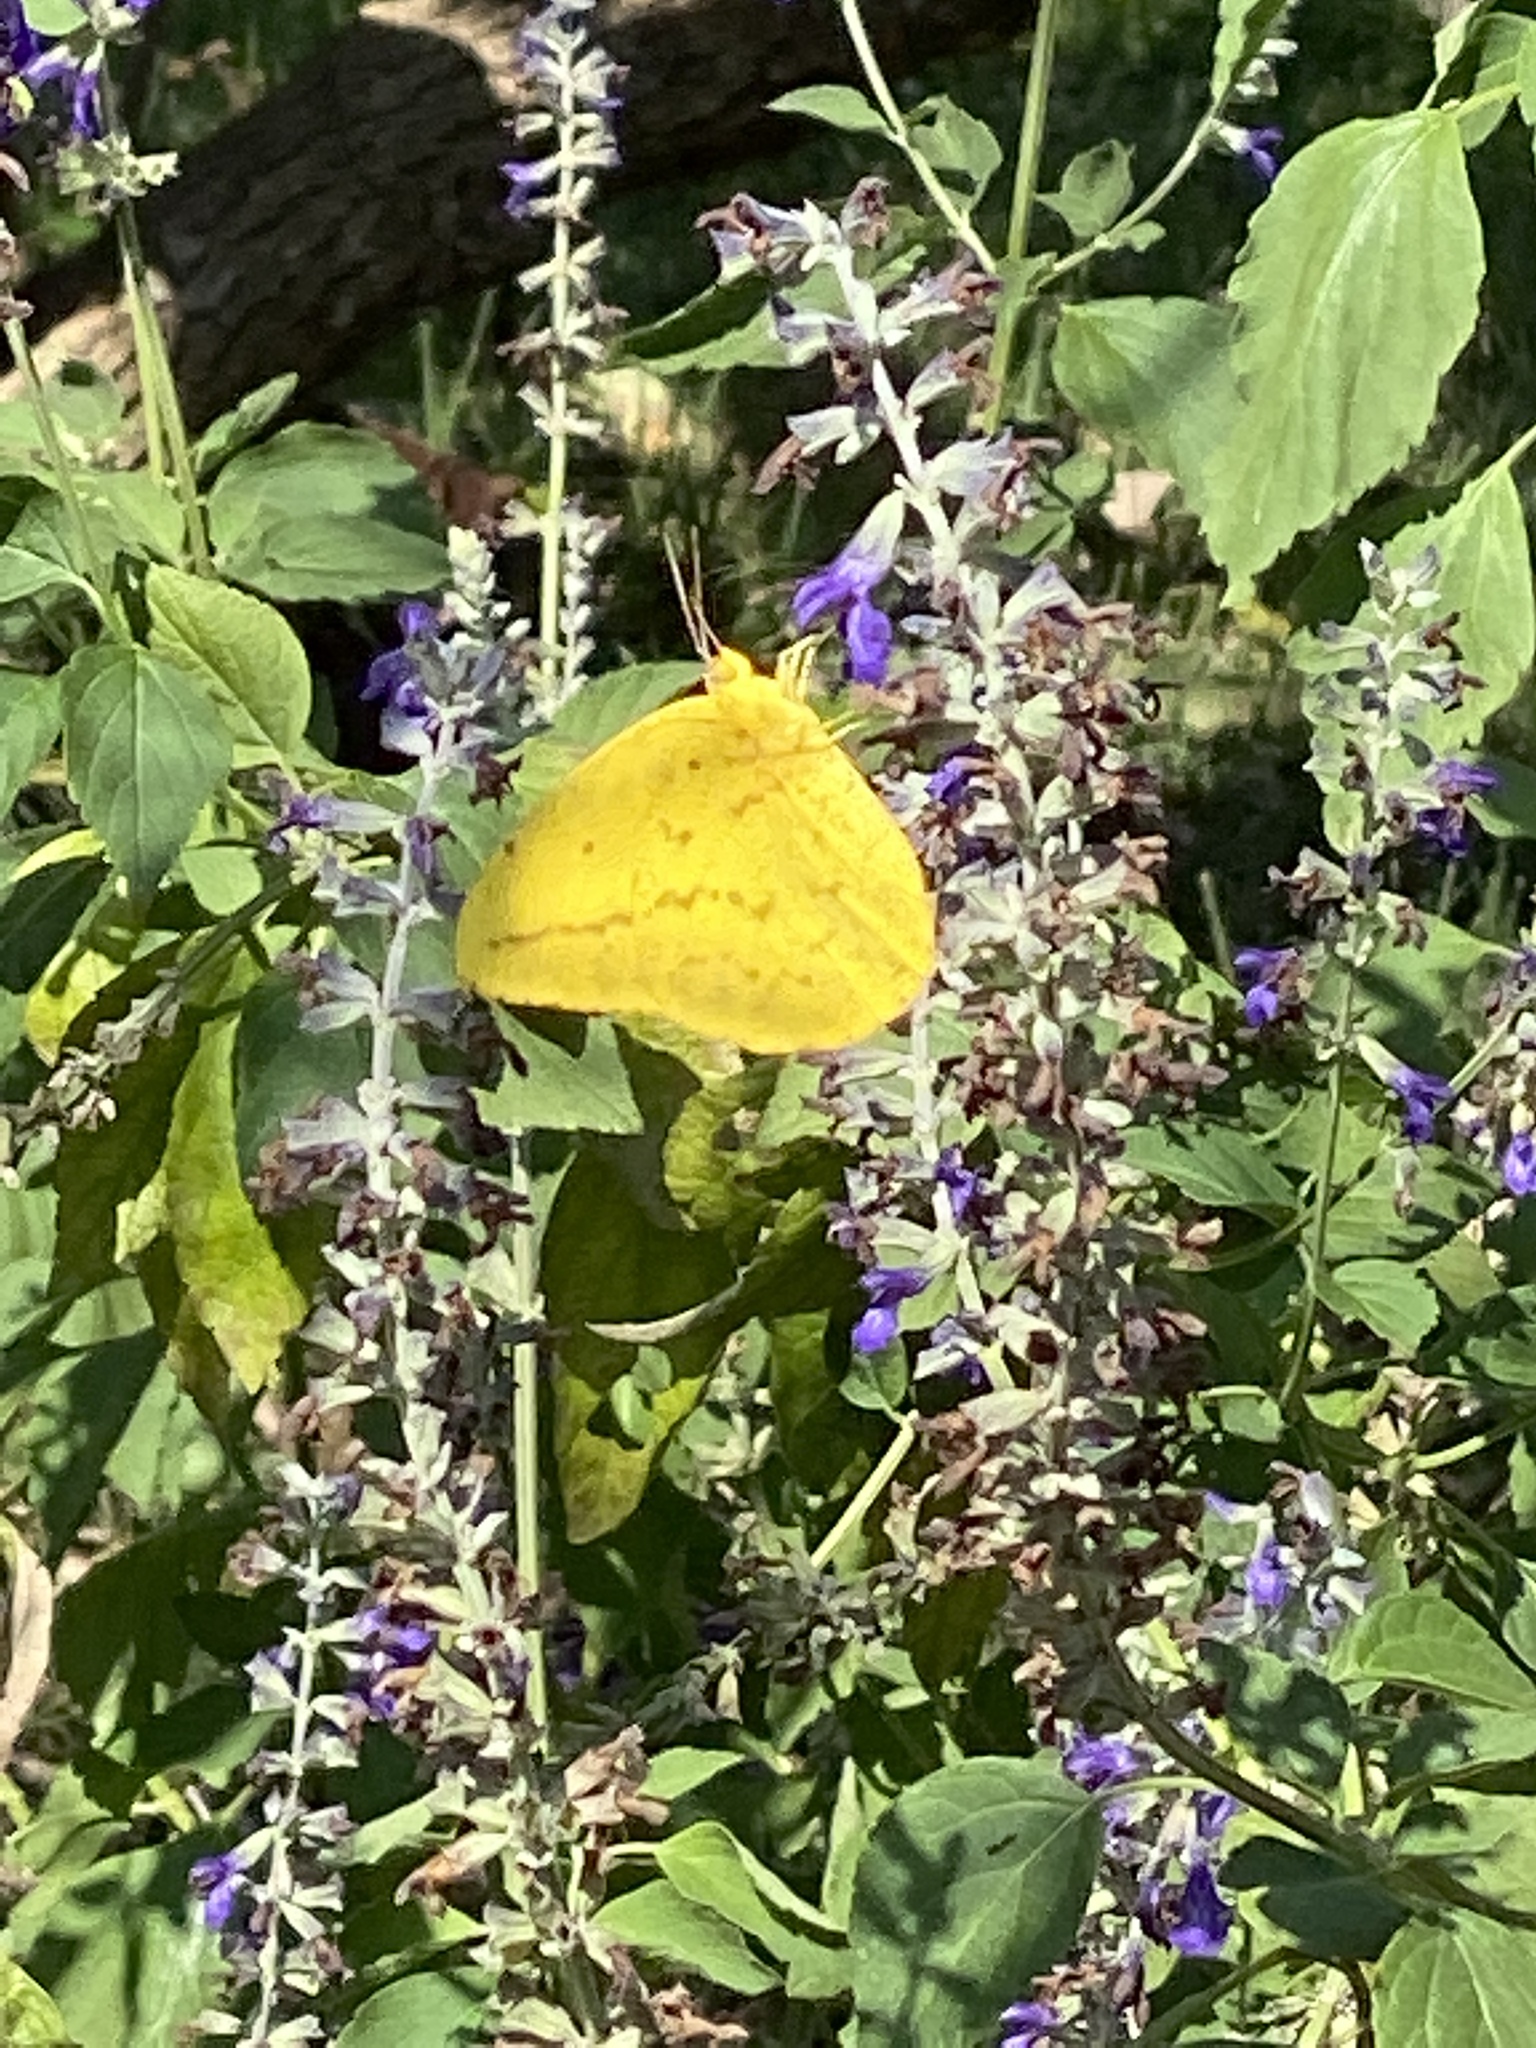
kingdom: Animalia
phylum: Arthropoda
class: Insecta
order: Lepidoptera
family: Pieridae
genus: Phoebis
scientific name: Phoebis agarithe
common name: Large orange sulphur
